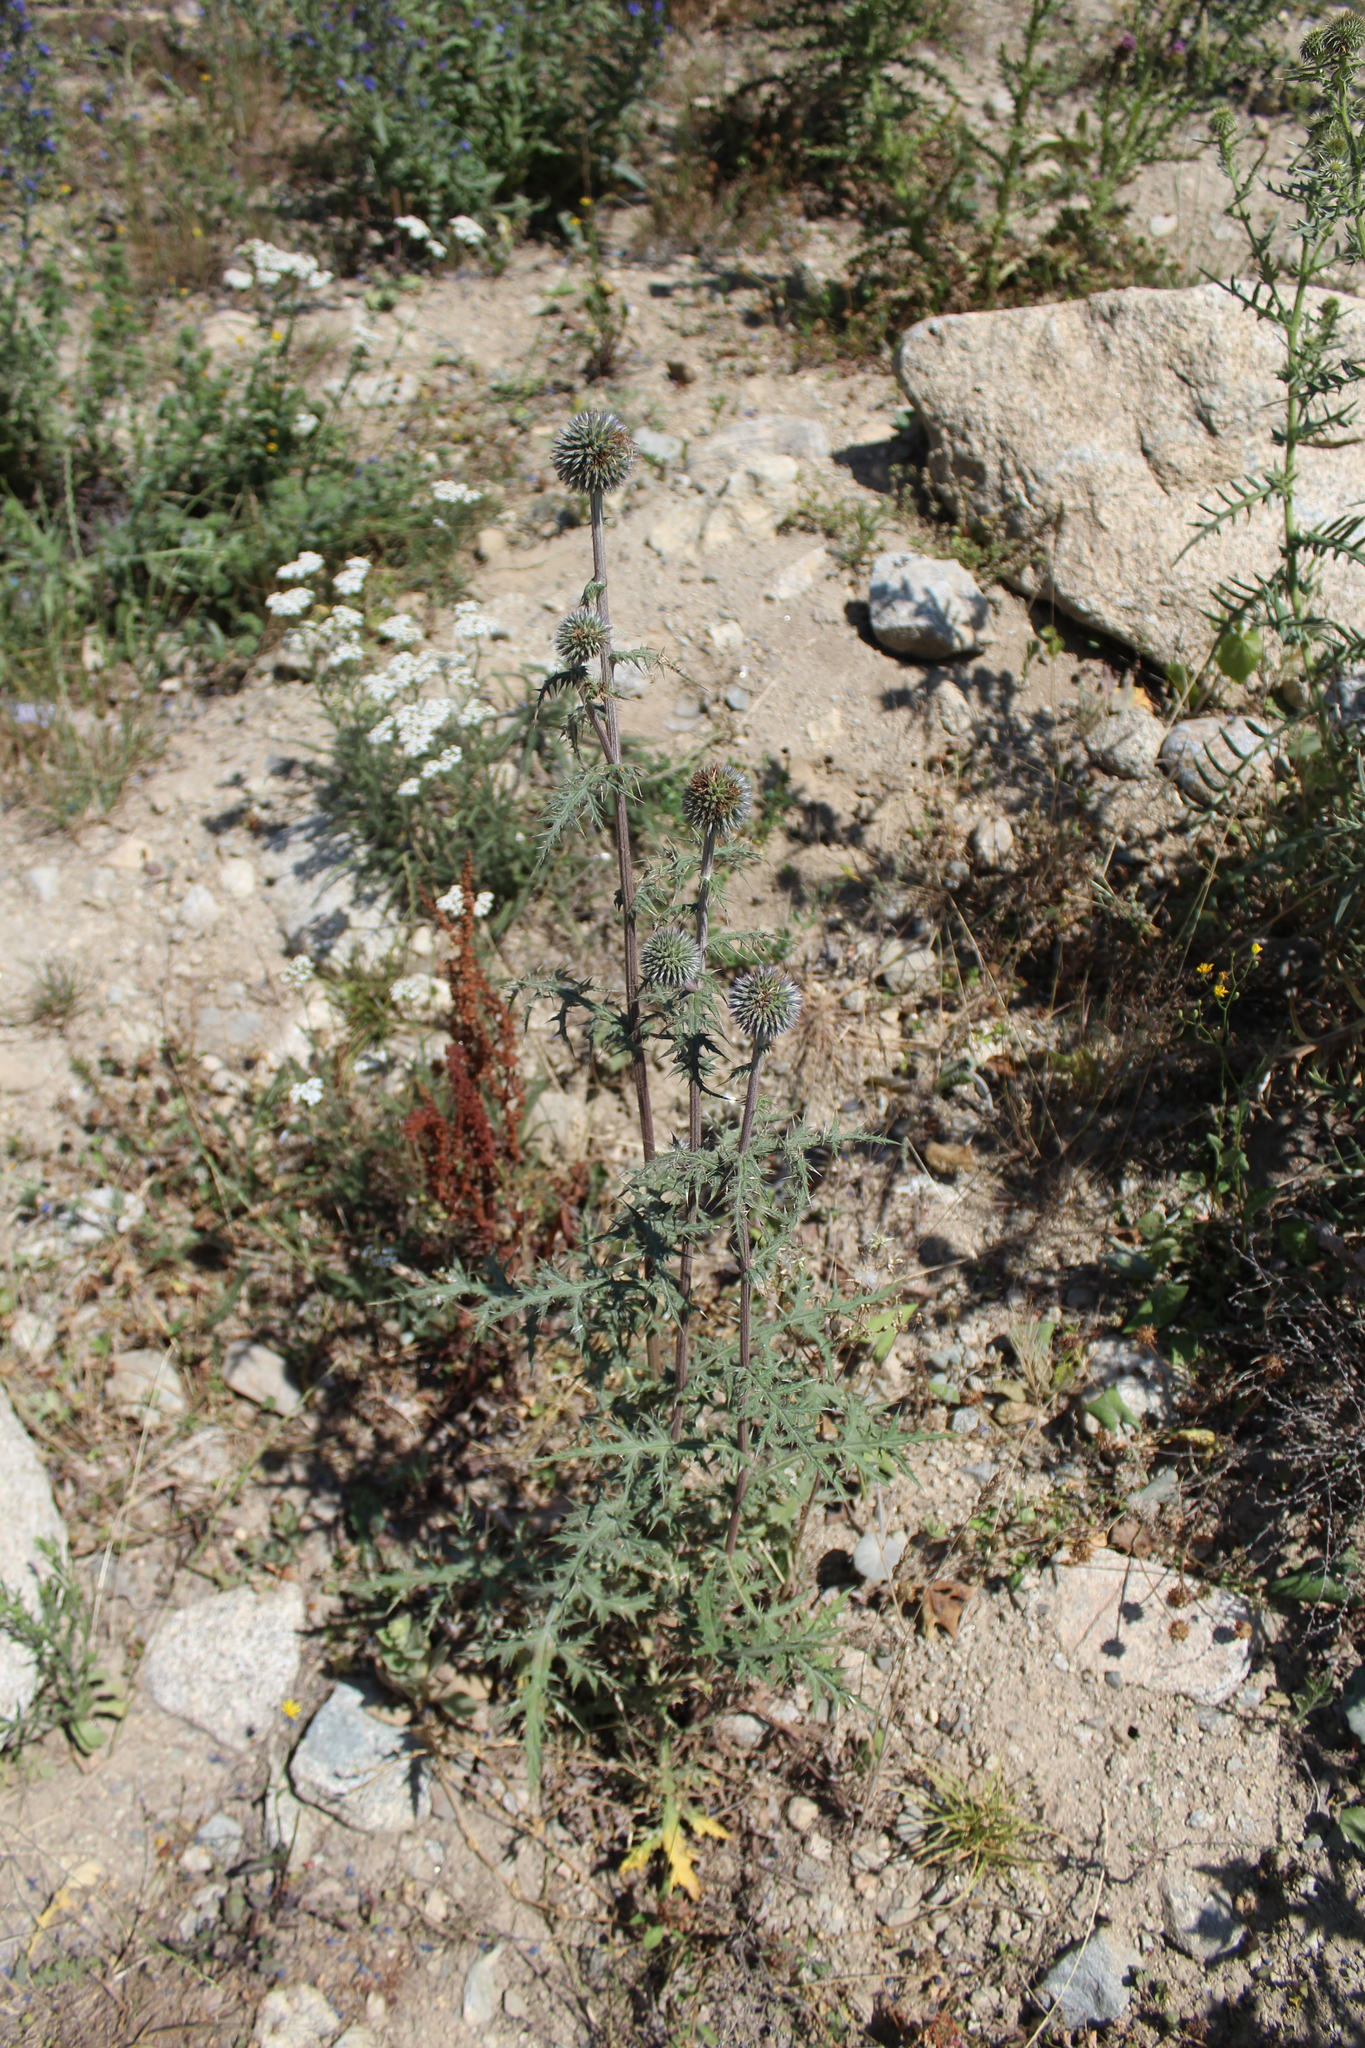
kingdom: Plantae
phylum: Tracheophyta
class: Magnoliopsida
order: Asterales
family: Asteraceae
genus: Echinops
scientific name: Echinops sphaerocephalus
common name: Glandular globe-thistle
